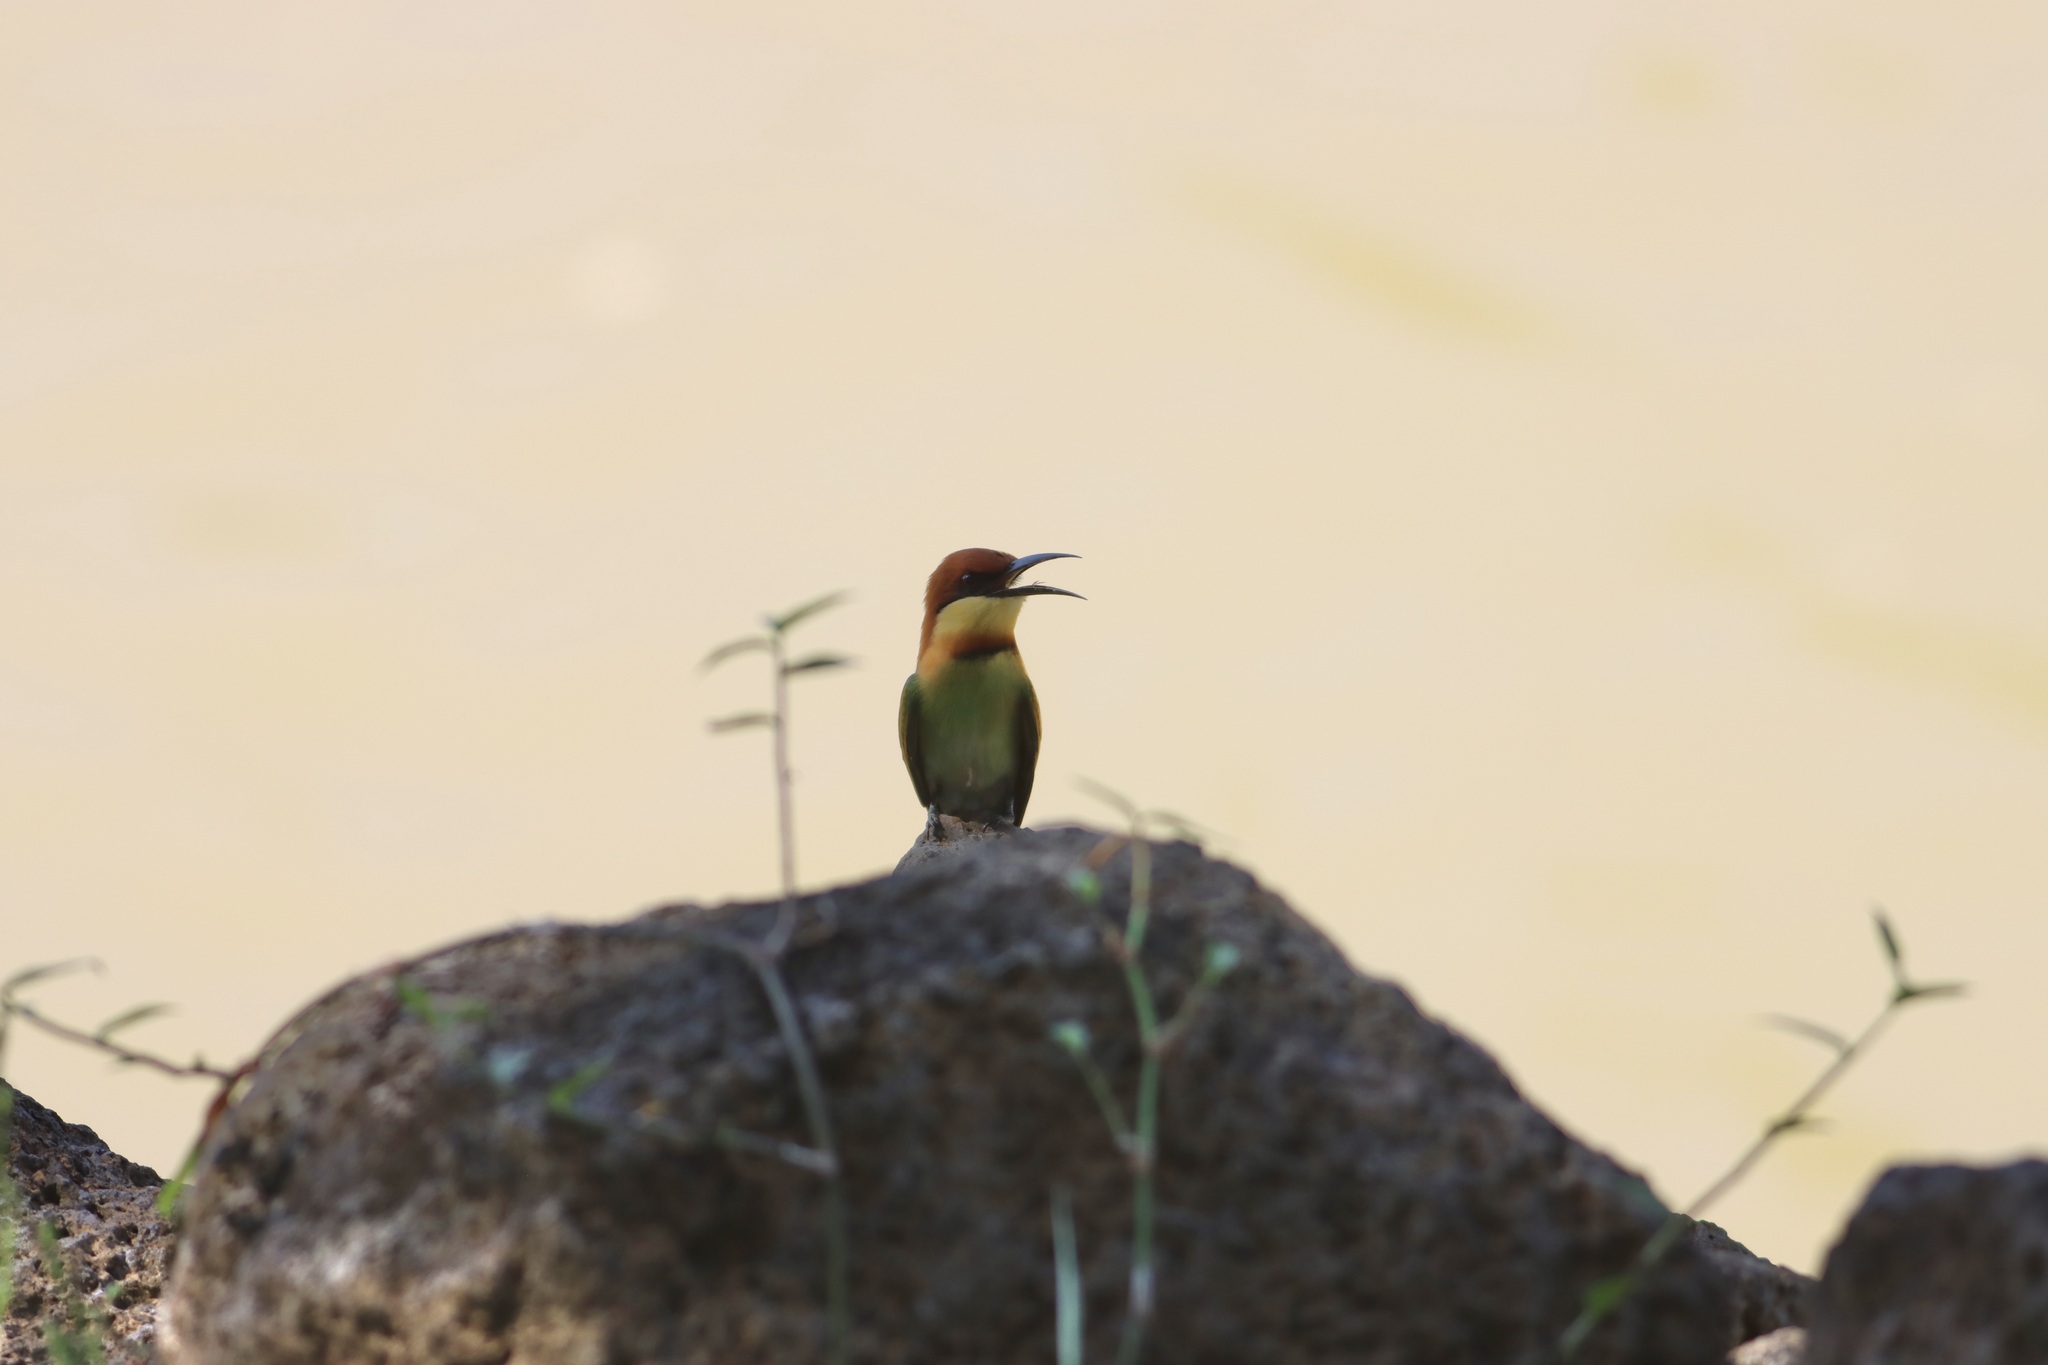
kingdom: Animalia
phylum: Chordata
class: Aves
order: Coraciiformes
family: Meropidae
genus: Merops
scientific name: Merops leschenaulti
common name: Chestnut-headed bee-eater
